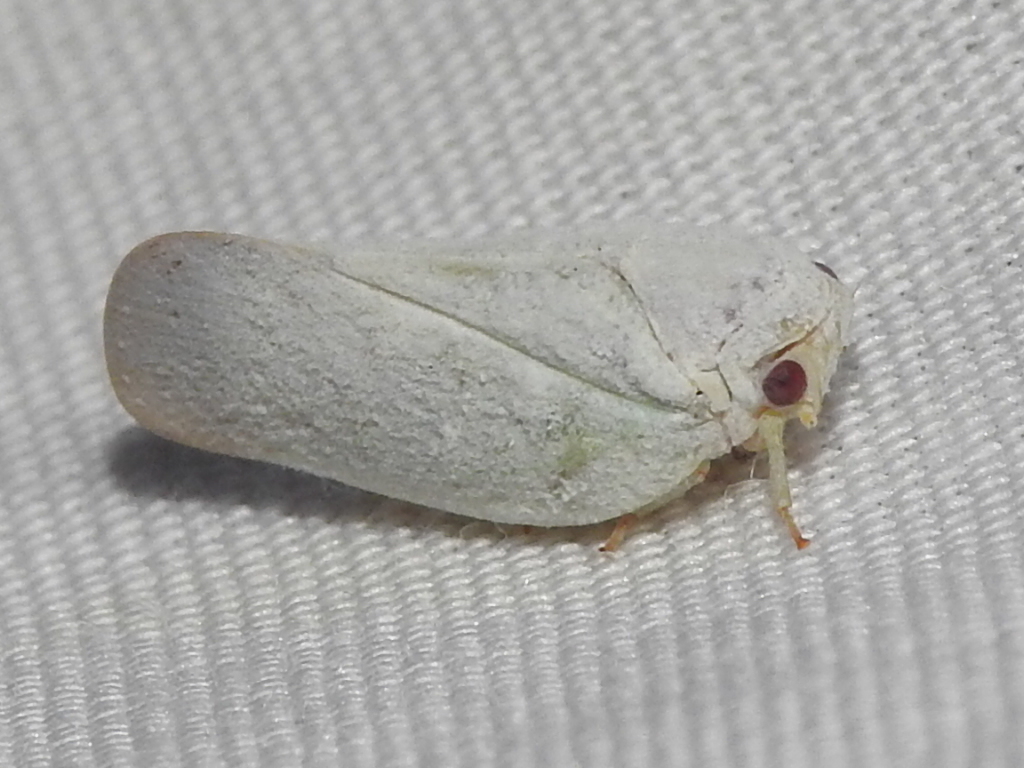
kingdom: Animalia
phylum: Arthropoda
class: Insecta
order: Hemiptera
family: Flatidae
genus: Flatormenis
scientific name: Flatormenis saucia
